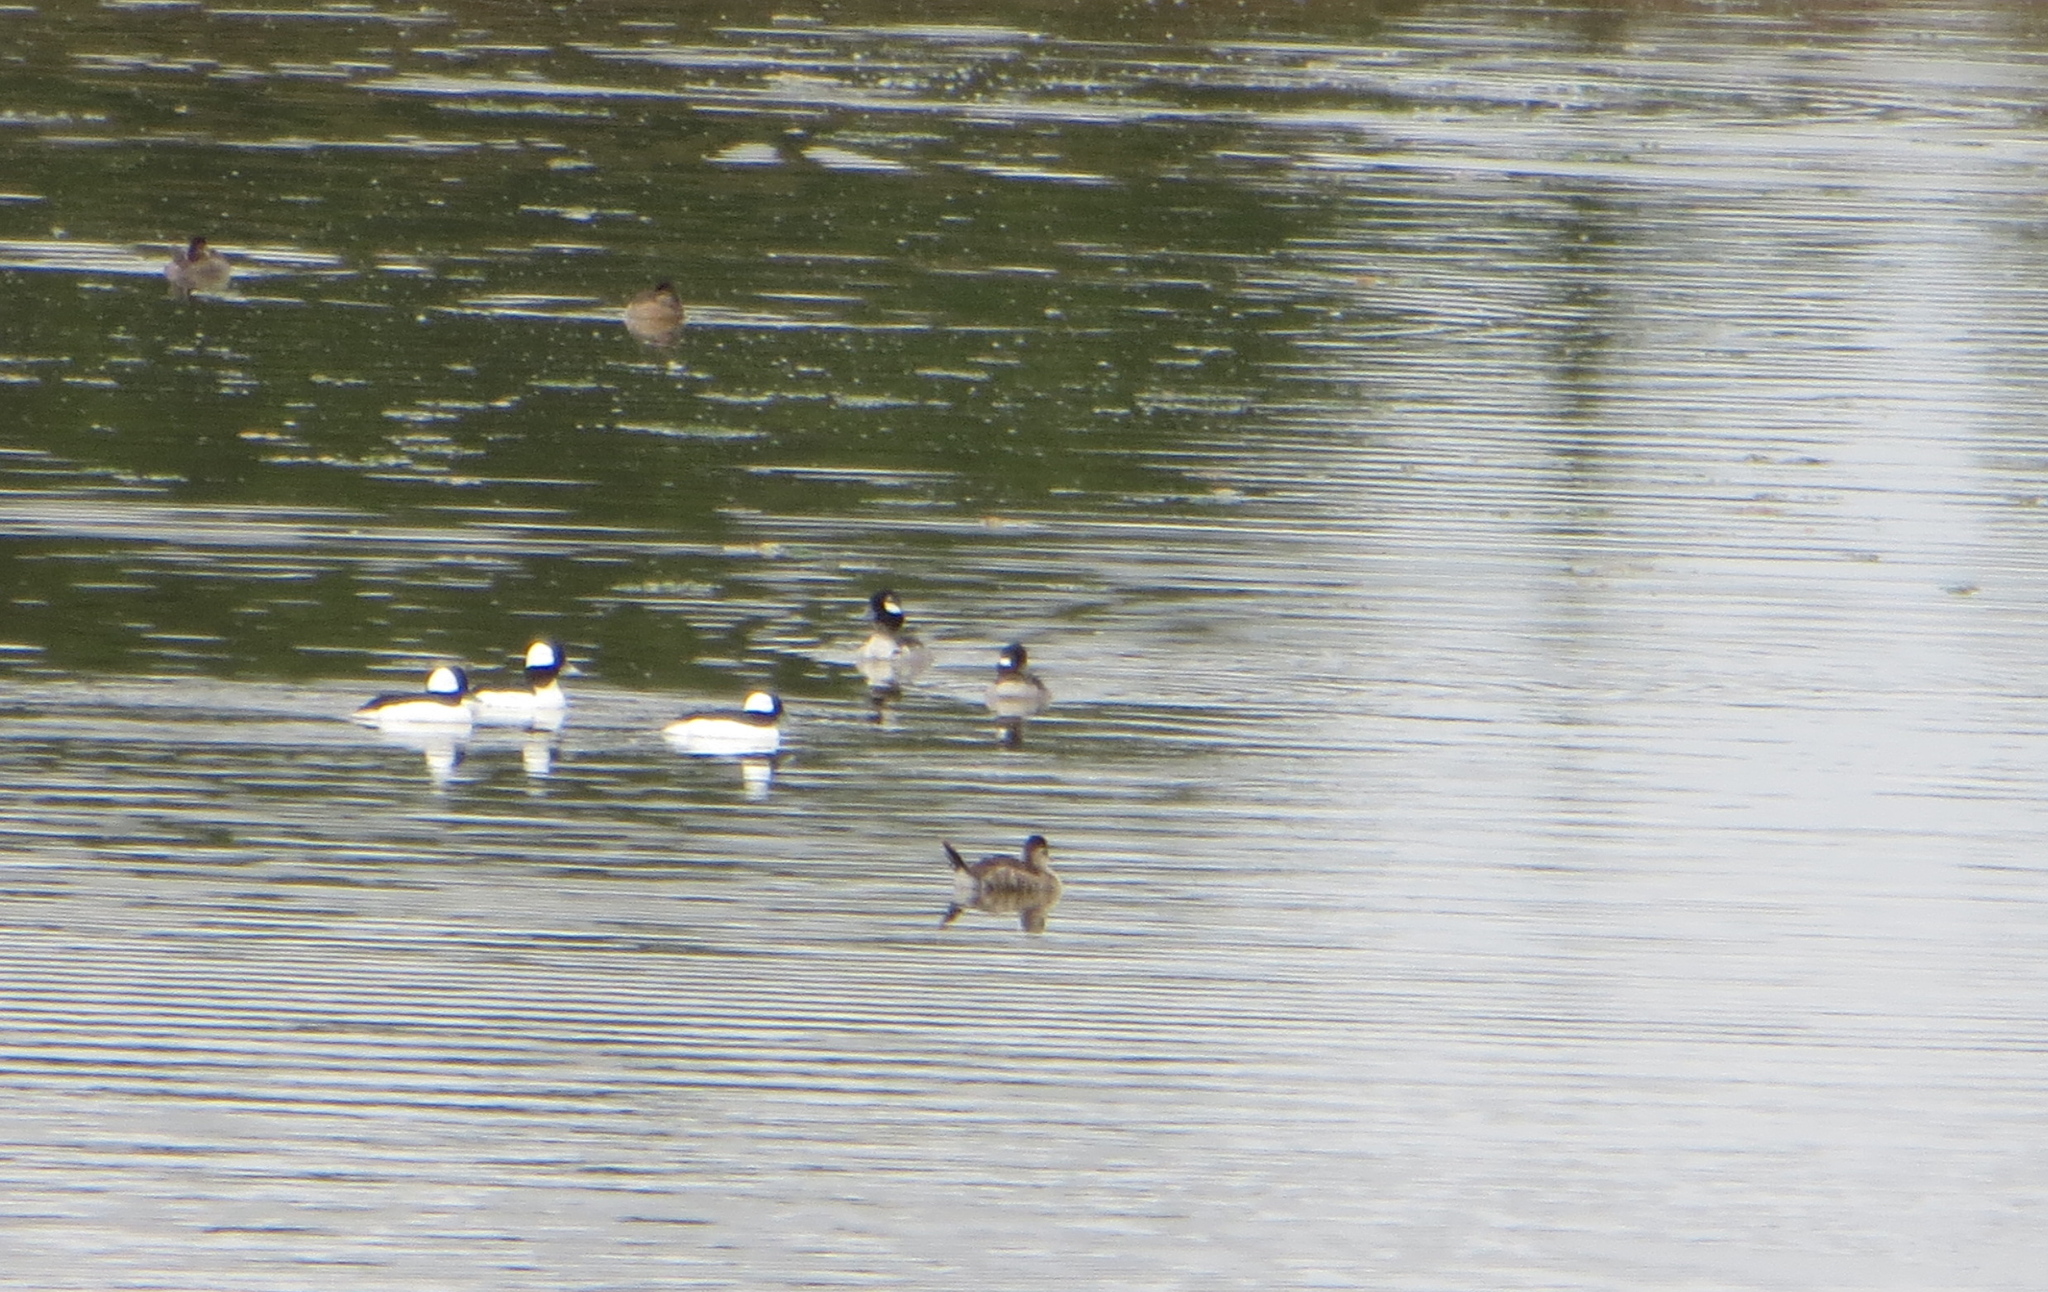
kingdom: Animalia
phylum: Chordata
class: Aves
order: Anseriformes
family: Anatidae
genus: Oxyura
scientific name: Oxyura jamaicensis
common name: Ruddy duck
